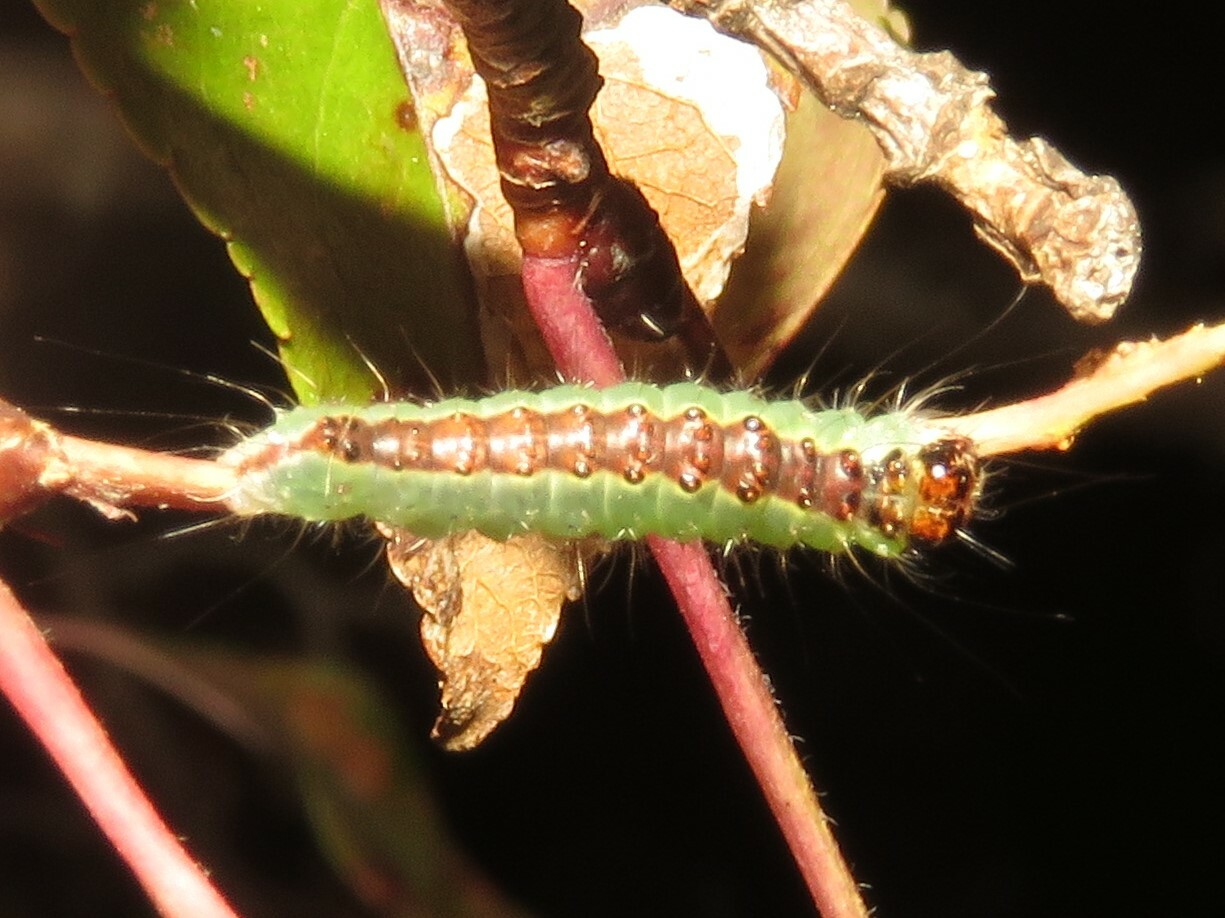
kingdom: Animalia
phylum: Arthropoda
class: Insecta
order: Lepidoptera
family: Noctuidae
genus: Acronicta
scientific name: Acronicta superans
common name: Splendid dagger
